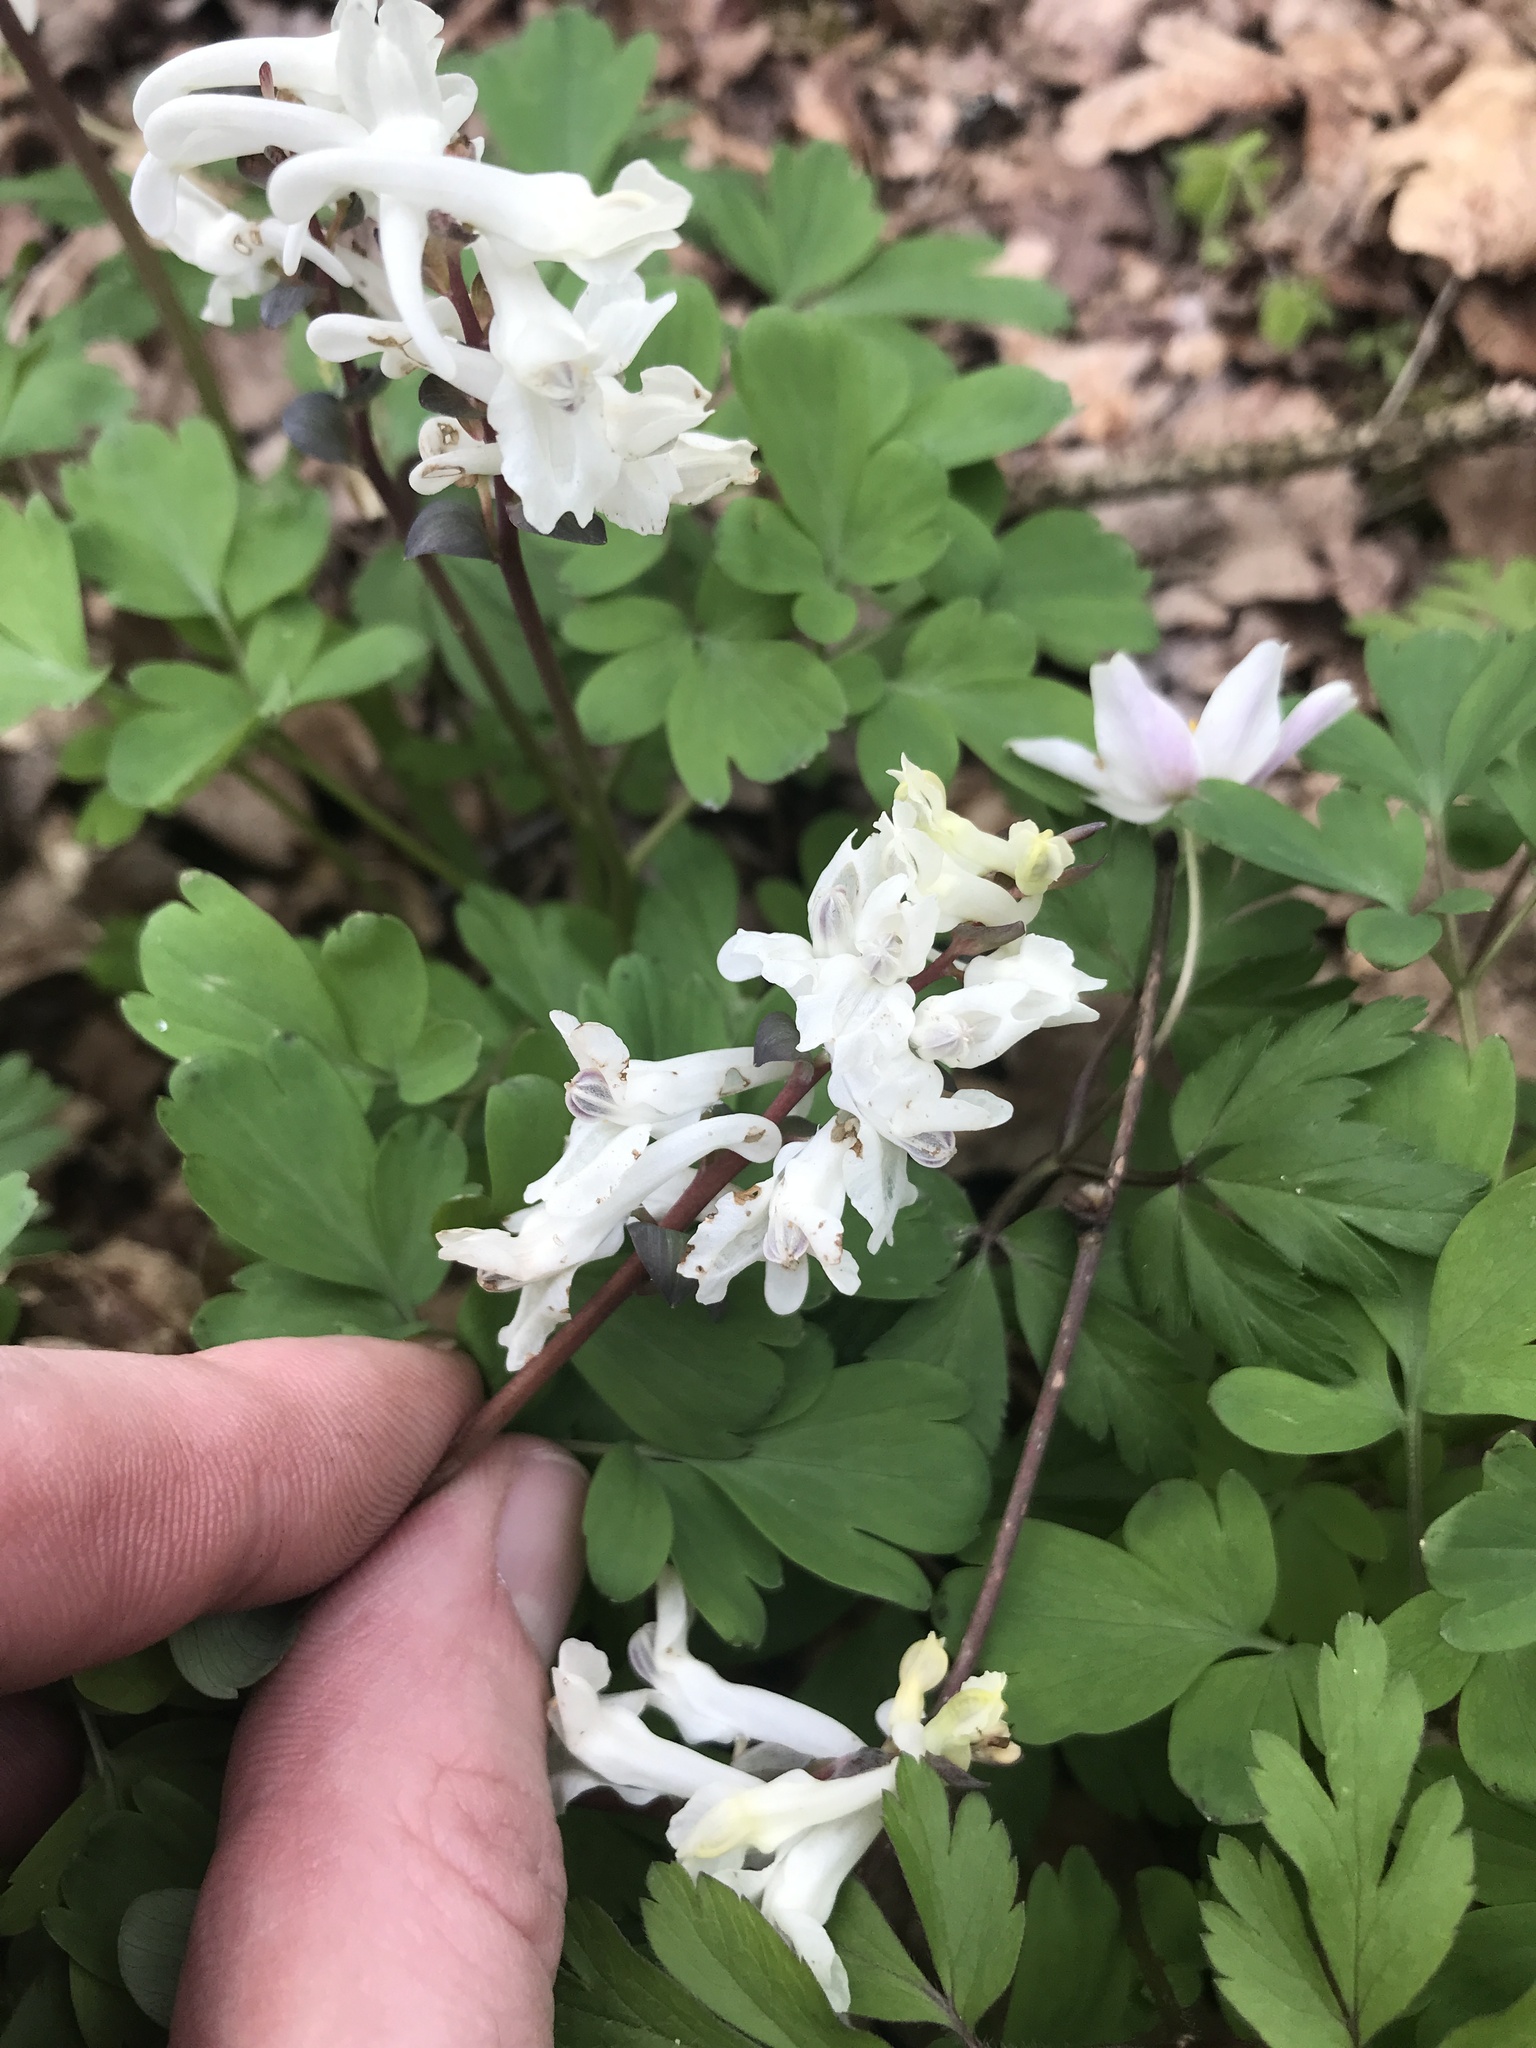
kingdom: Plantae
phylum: Tracheophyta
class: Magnoliopsida
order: Ranunculales
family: Papaveraceae
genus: Corydalis
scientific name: Corydalis cava
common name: Hollowroot
